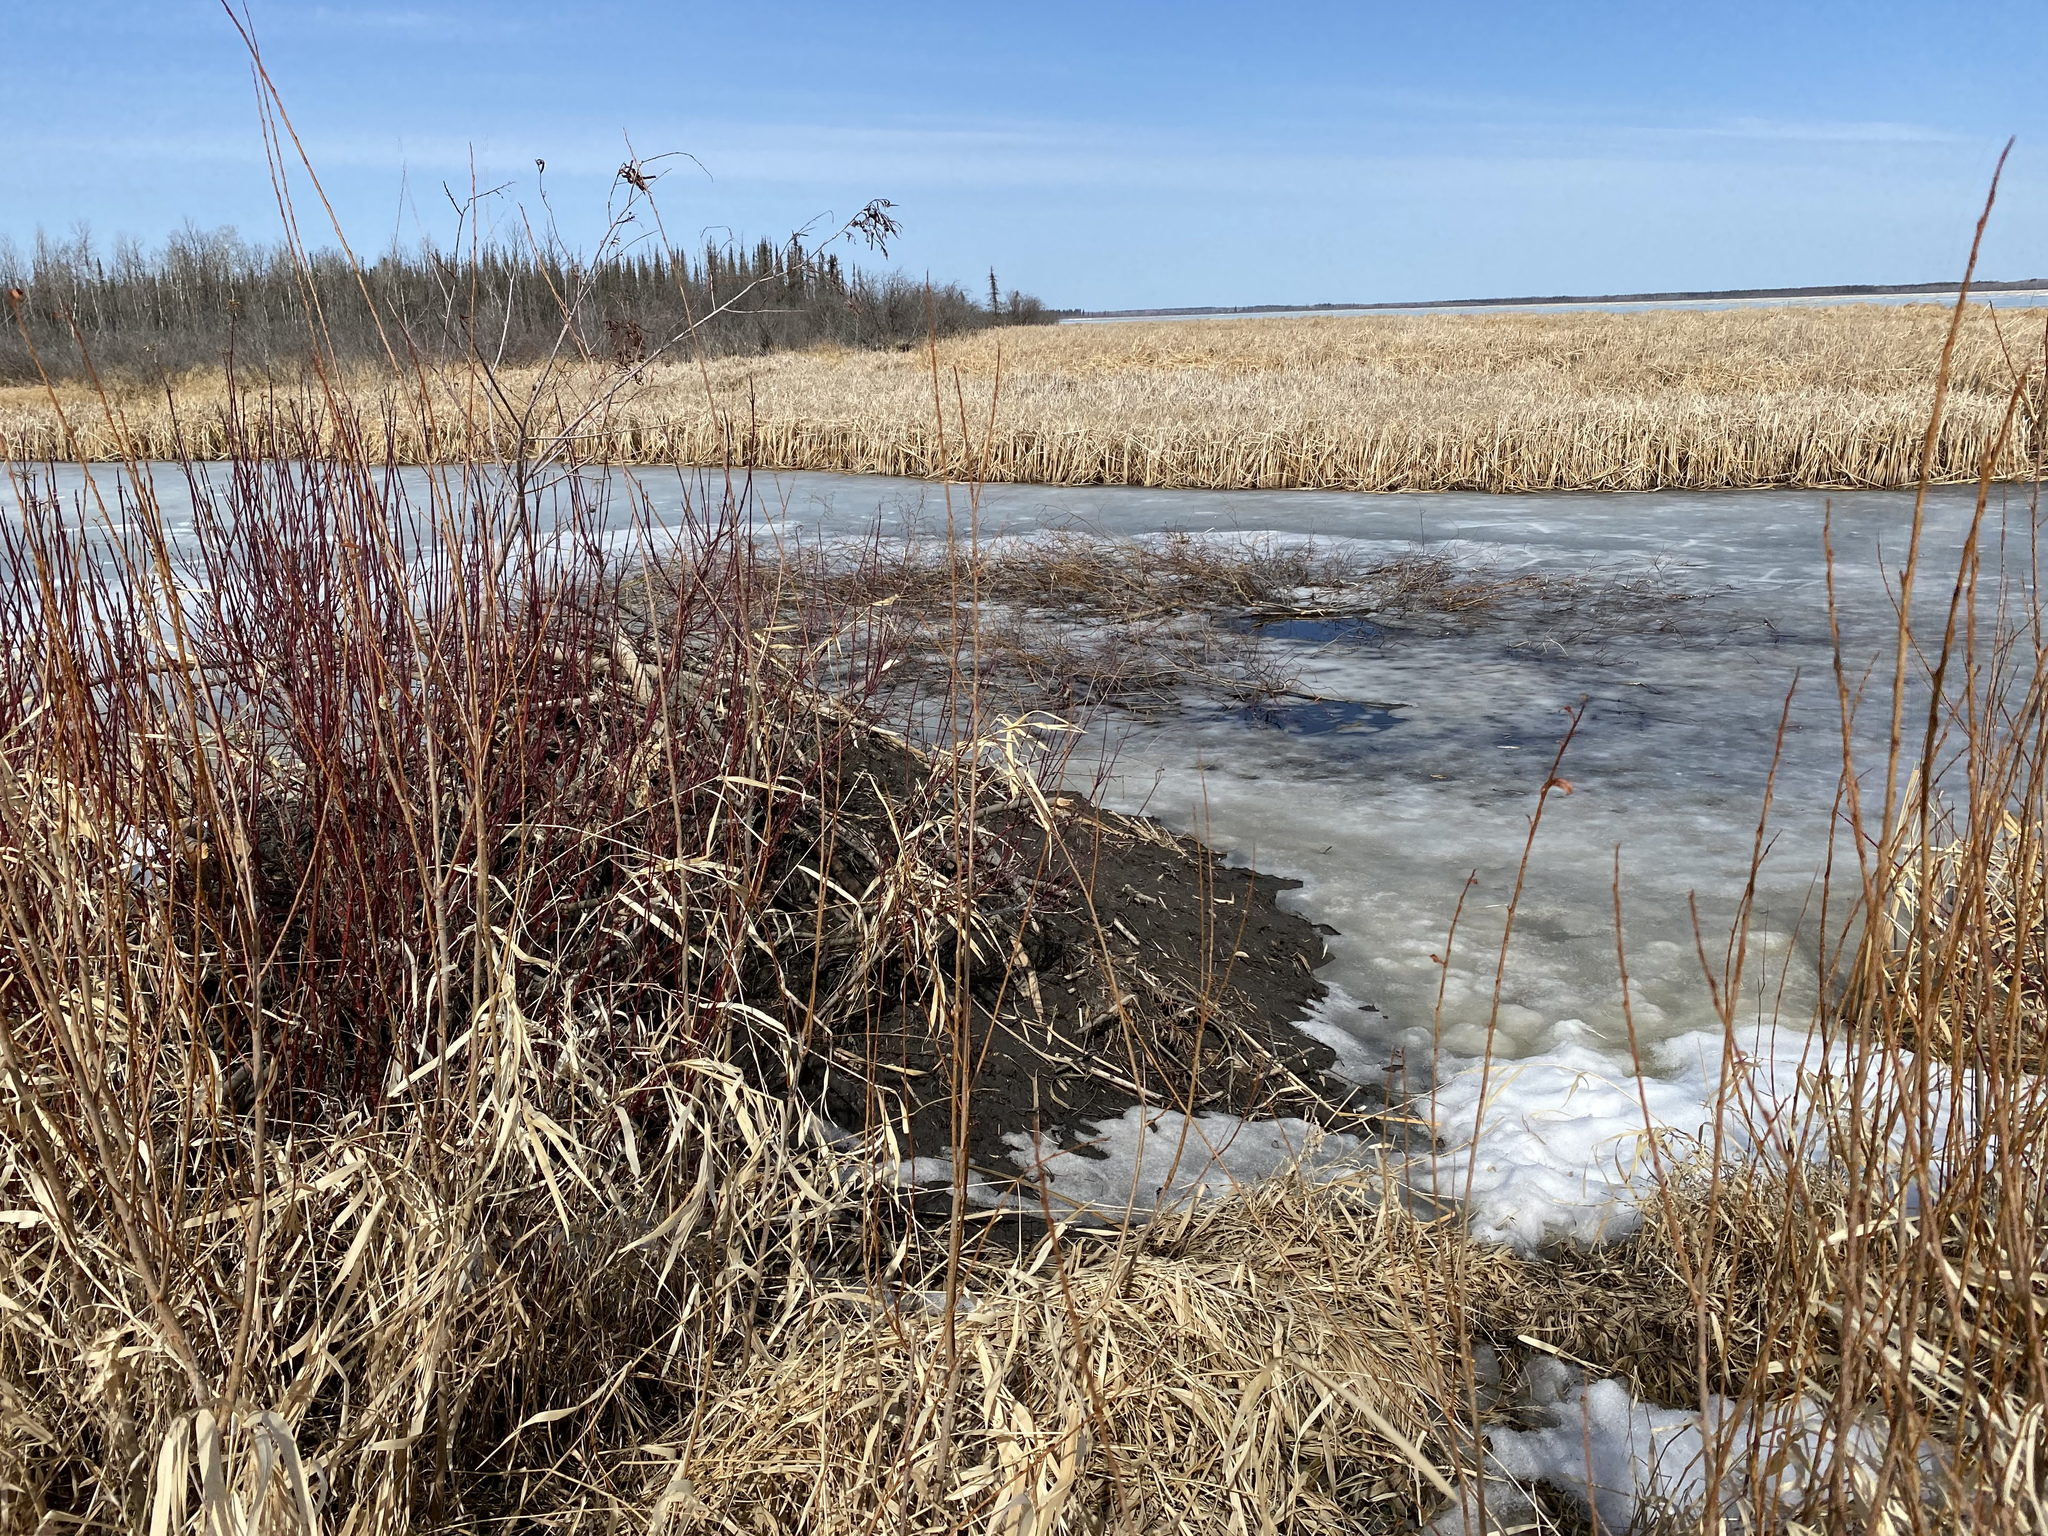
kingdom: Animalia
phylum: Chordata
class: Mammalia
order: Rodentia
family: Castoridae
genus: Castor
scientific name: Castor canadensis
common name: American beaver
